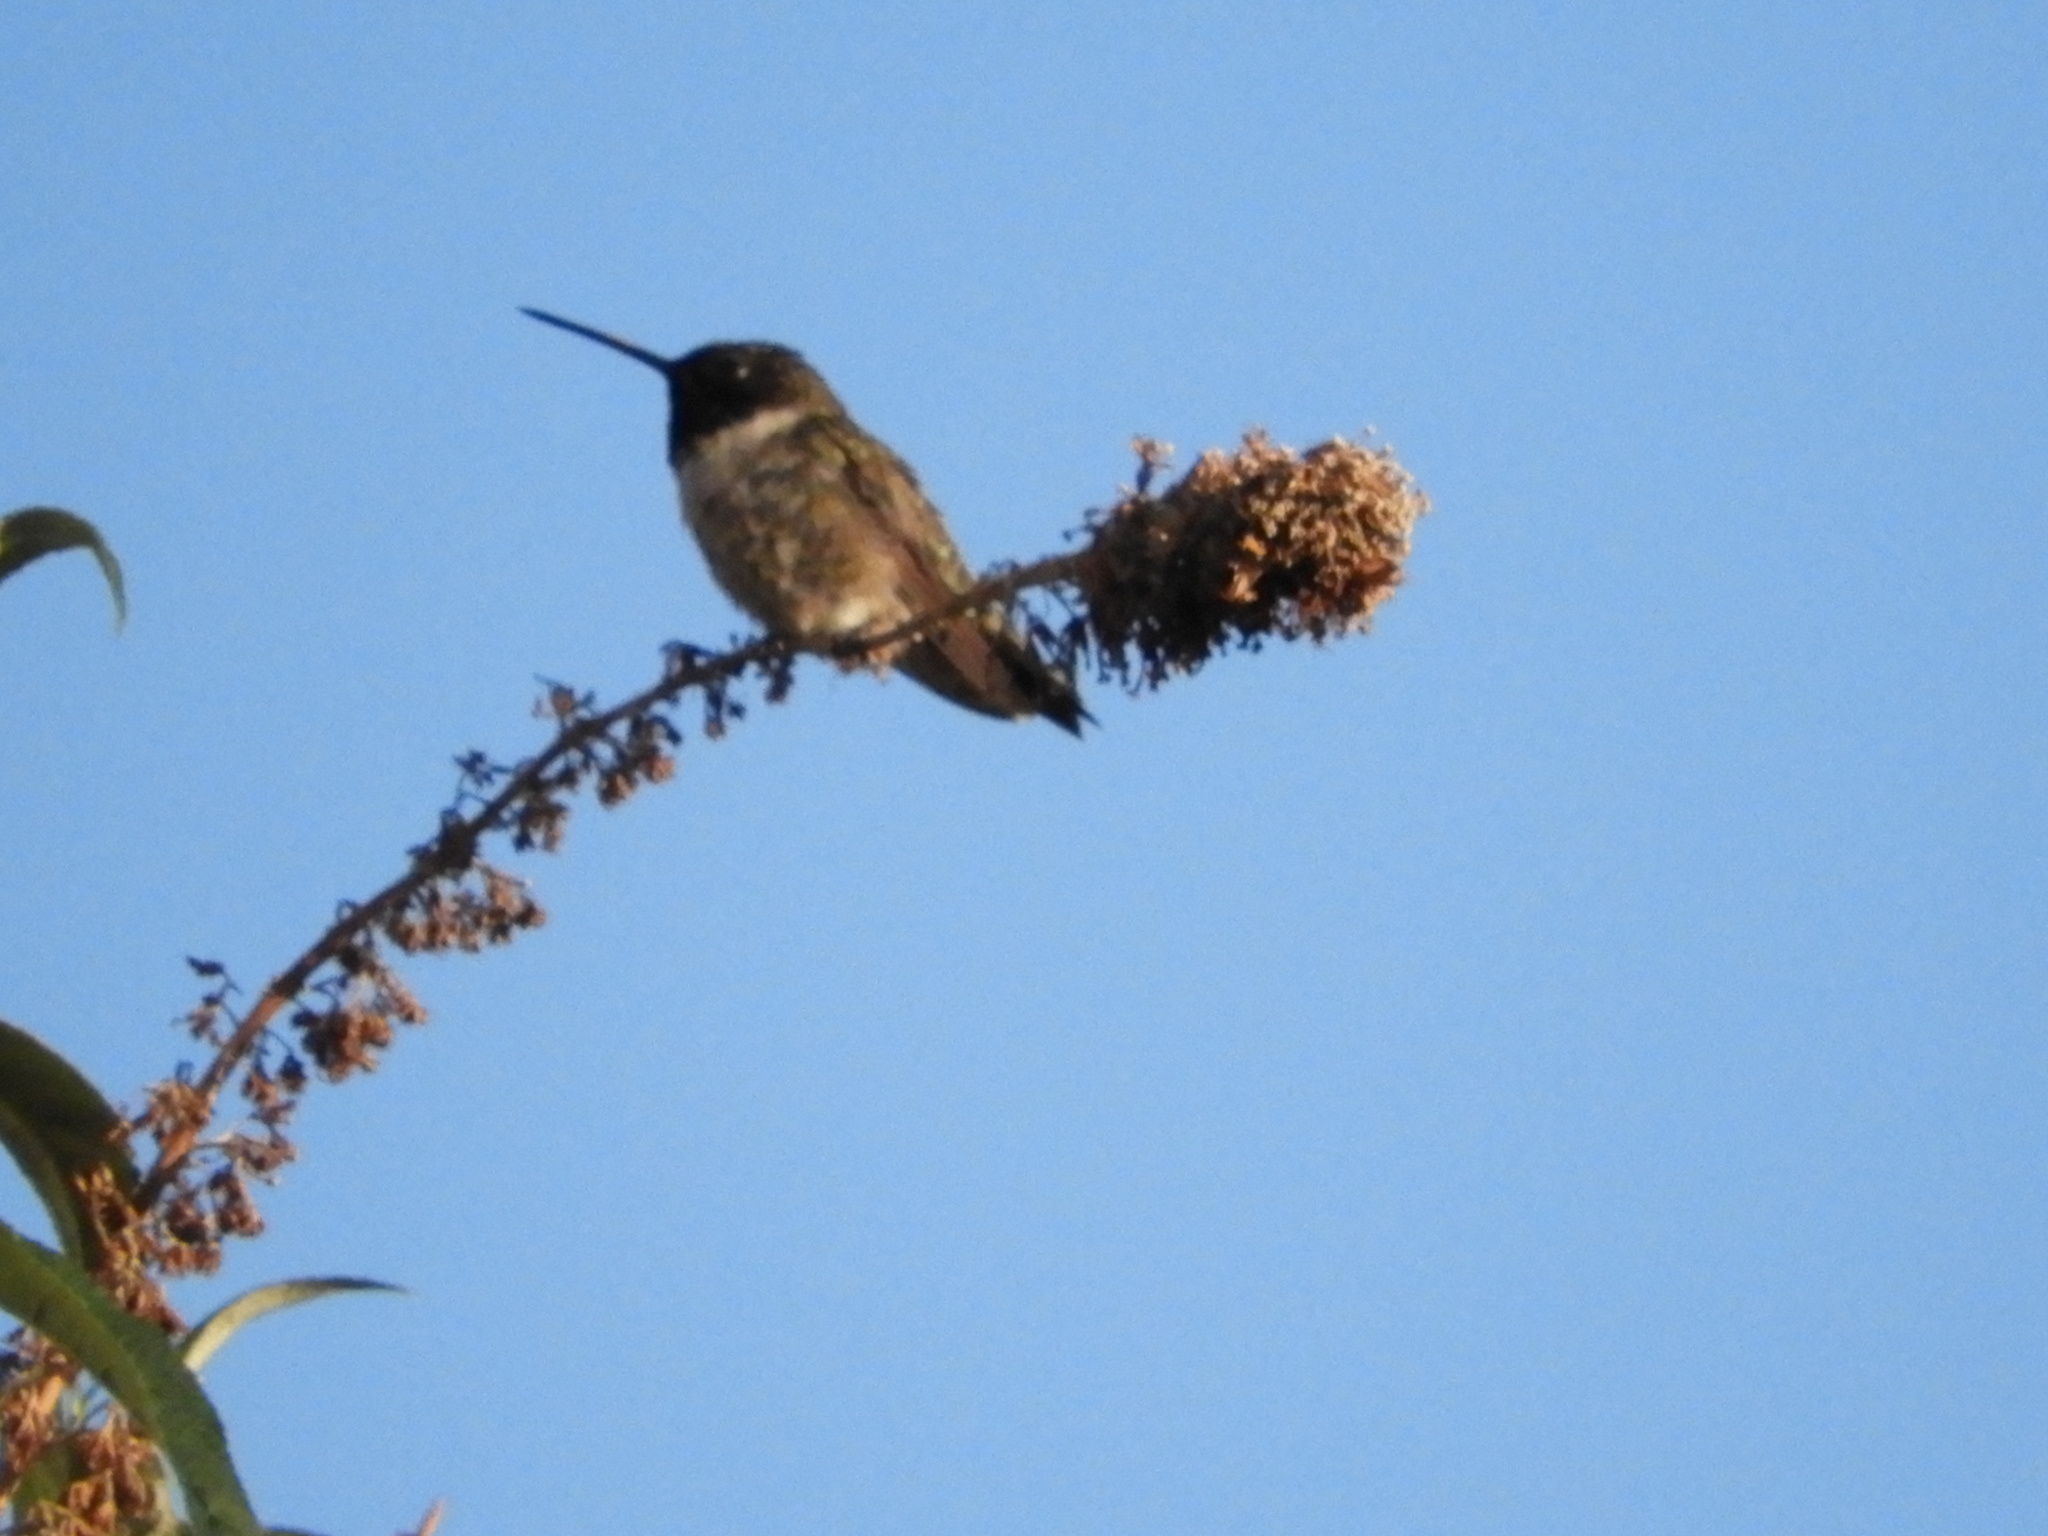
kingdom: Animalia
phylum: Chordata
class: Aves
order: Apodiformes
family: Trochilidae
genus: Archilochus
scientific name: Archilochus alexandri
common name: Black-chinned hummingbird
